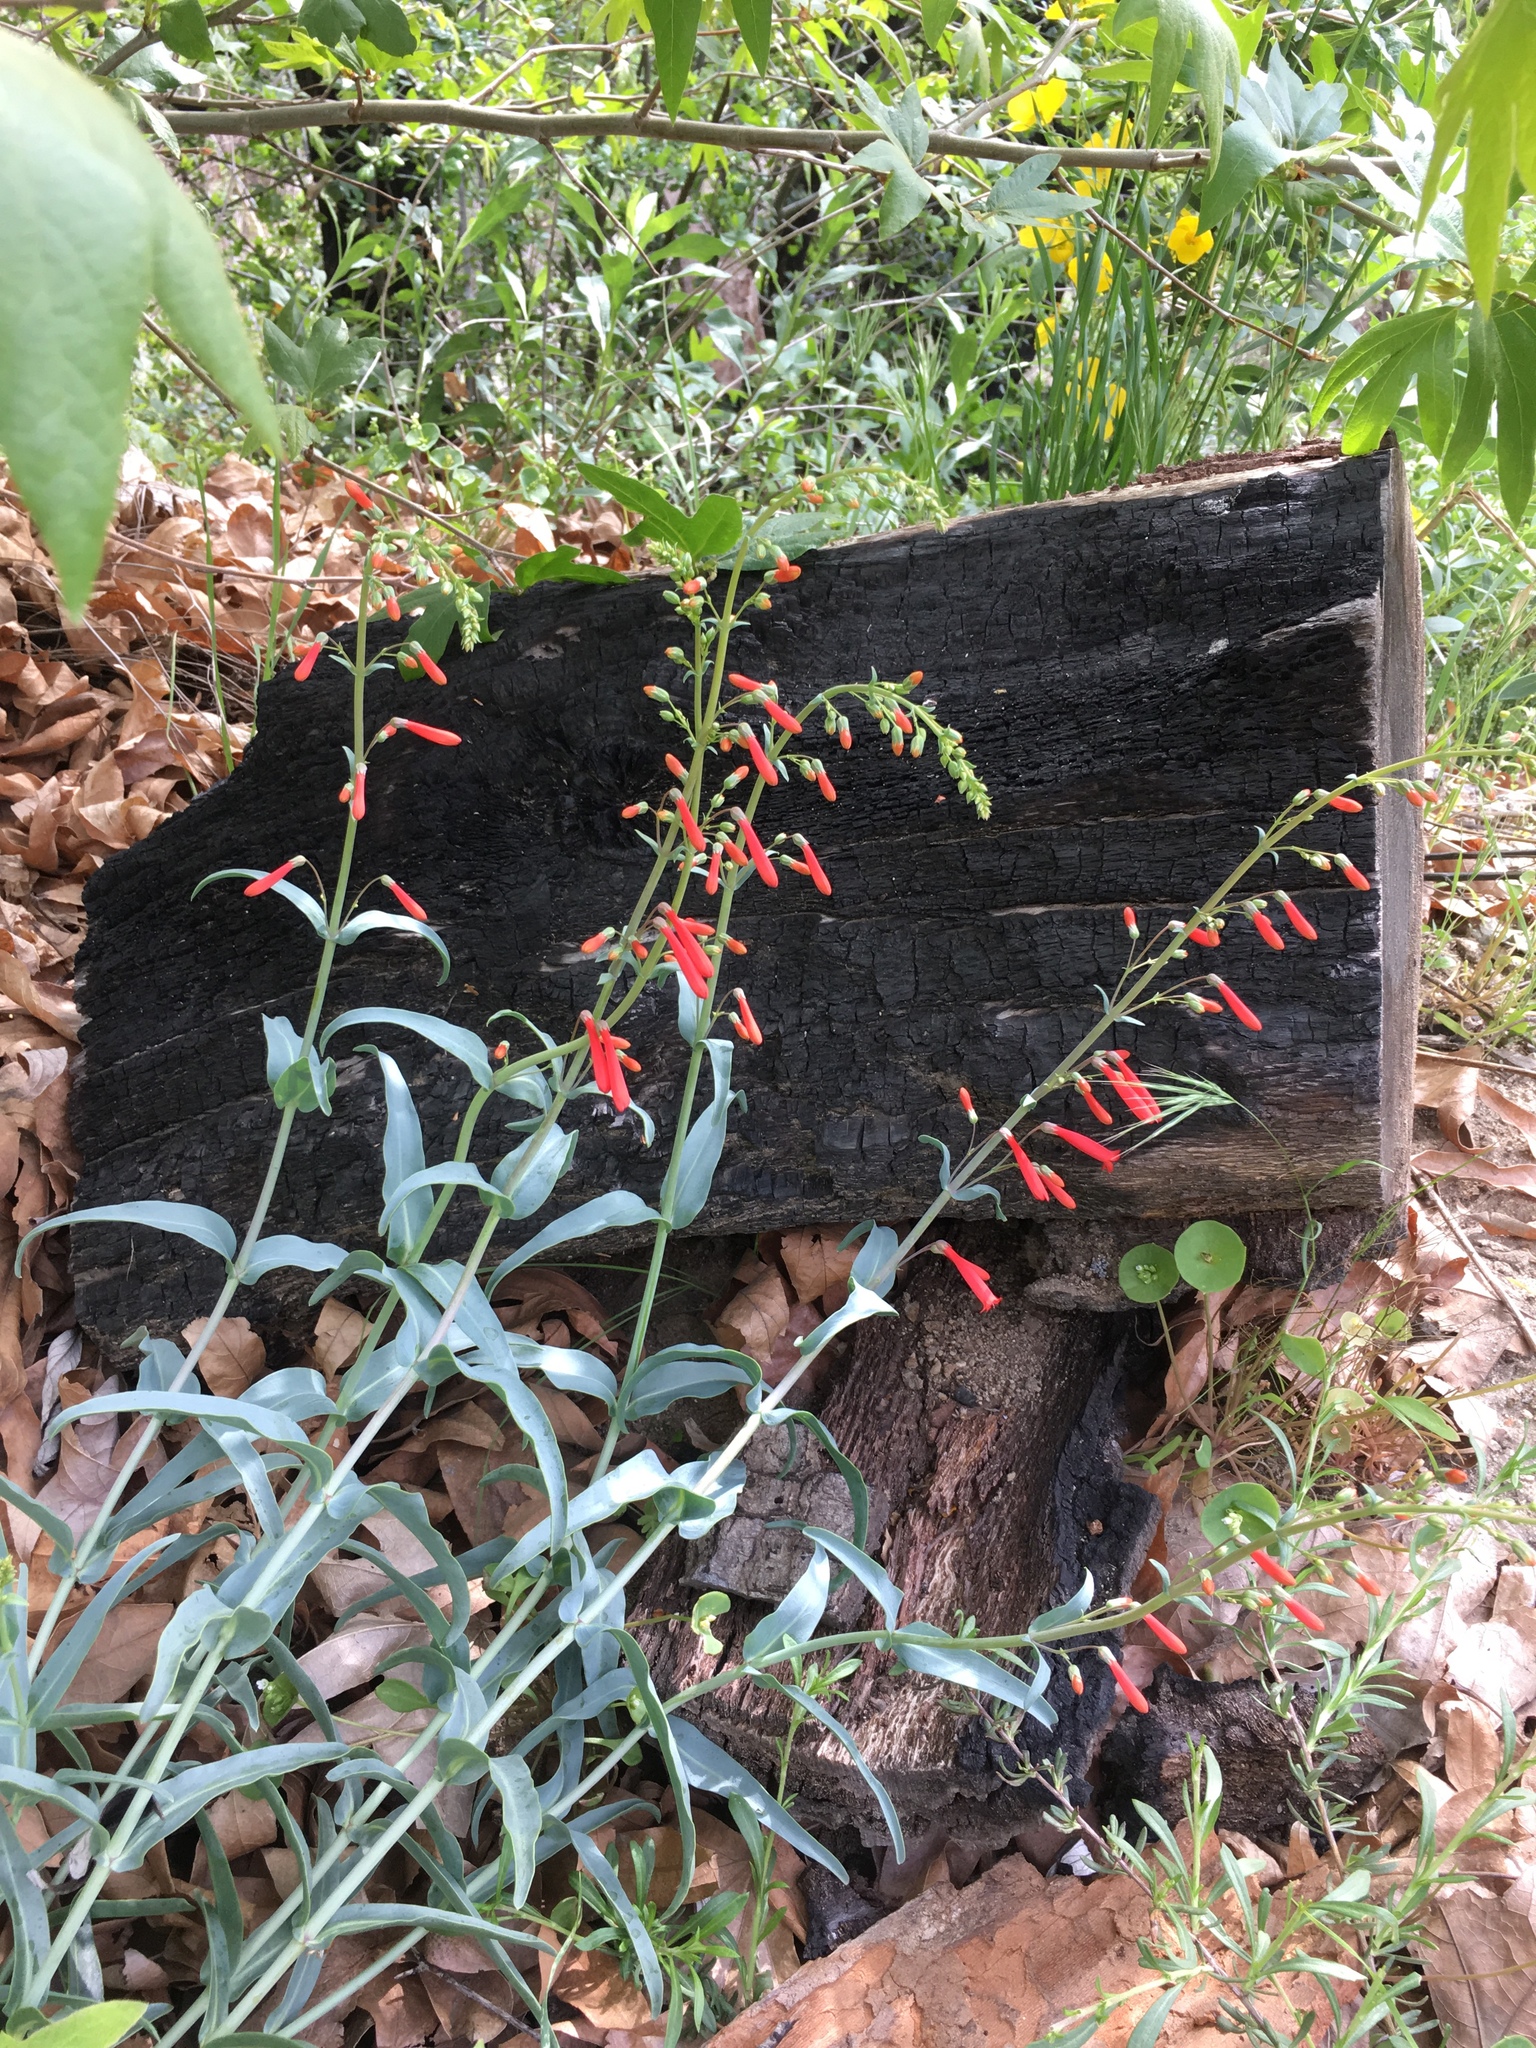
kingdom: Plantae
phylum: Tracheophyta
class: Magnoliopsida
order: Lamiales
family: Plantaginaceae
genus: Penstemon
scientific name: Penstemon centranthifolius
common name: Scarlet bugler
